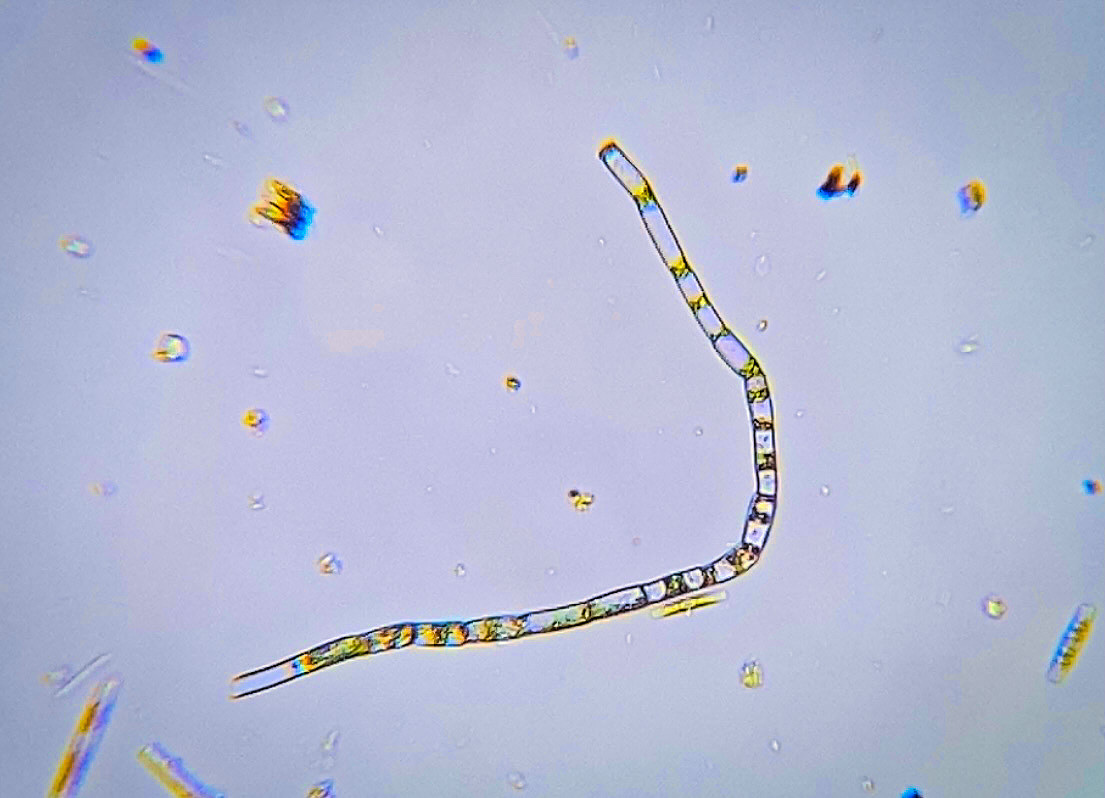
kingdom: Plantae
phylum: Chlorophyta
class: Chlorophyceae
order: Oedogoniales
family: Oedogoniaceae
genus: Oedogonium
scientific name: Oedogonium
